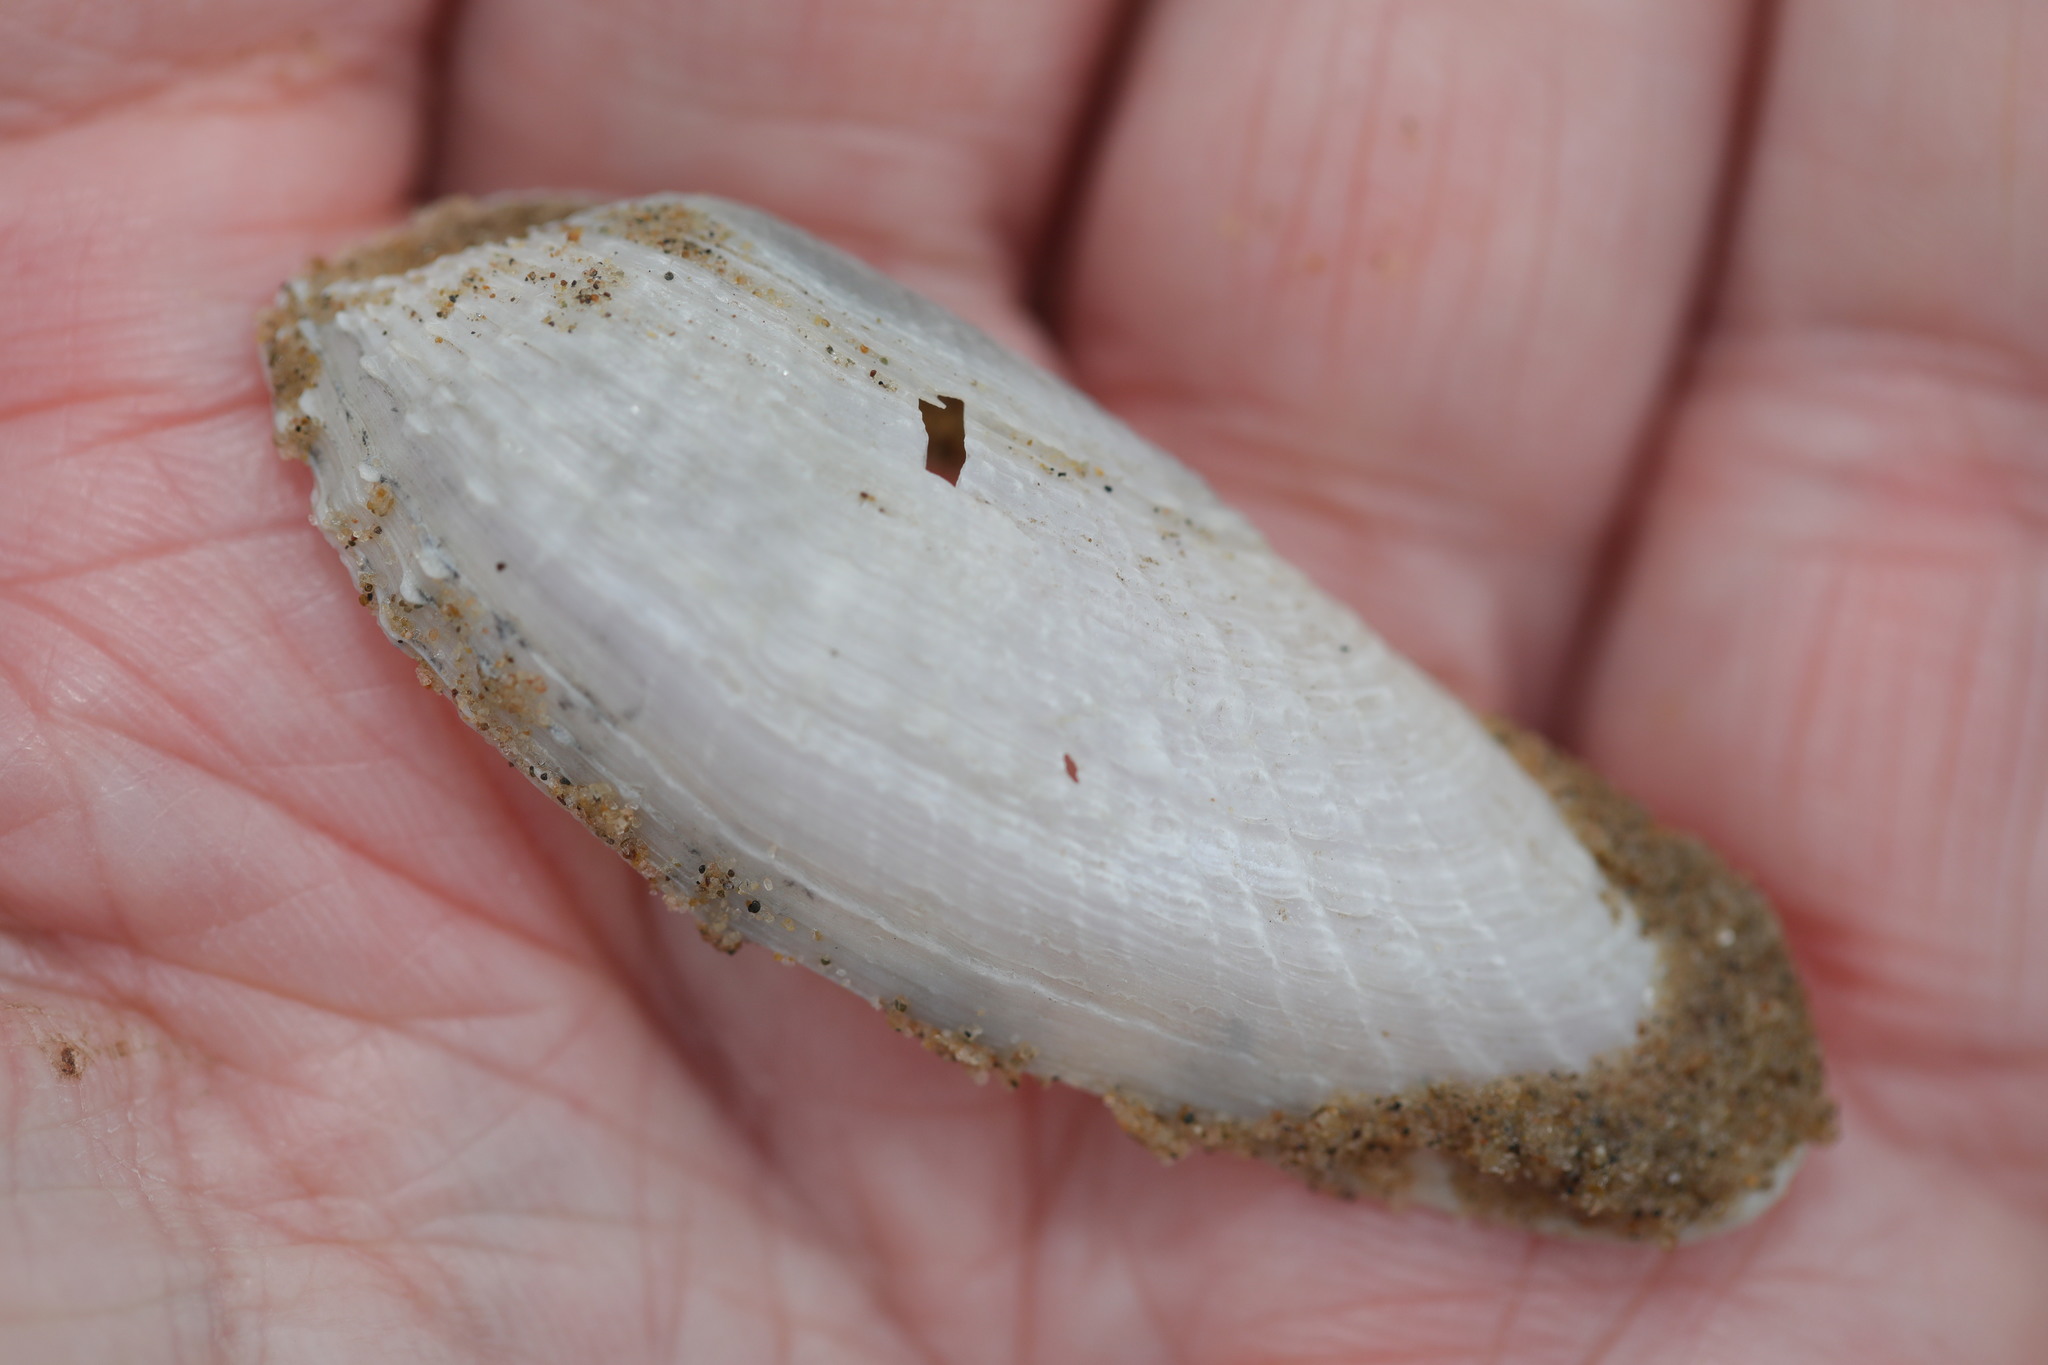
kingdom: Animalia
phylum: Mollusca
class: Bivalvia
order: Myida
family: Pholadidae
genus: Barnea
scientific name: Barnea candida
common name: White piddock
